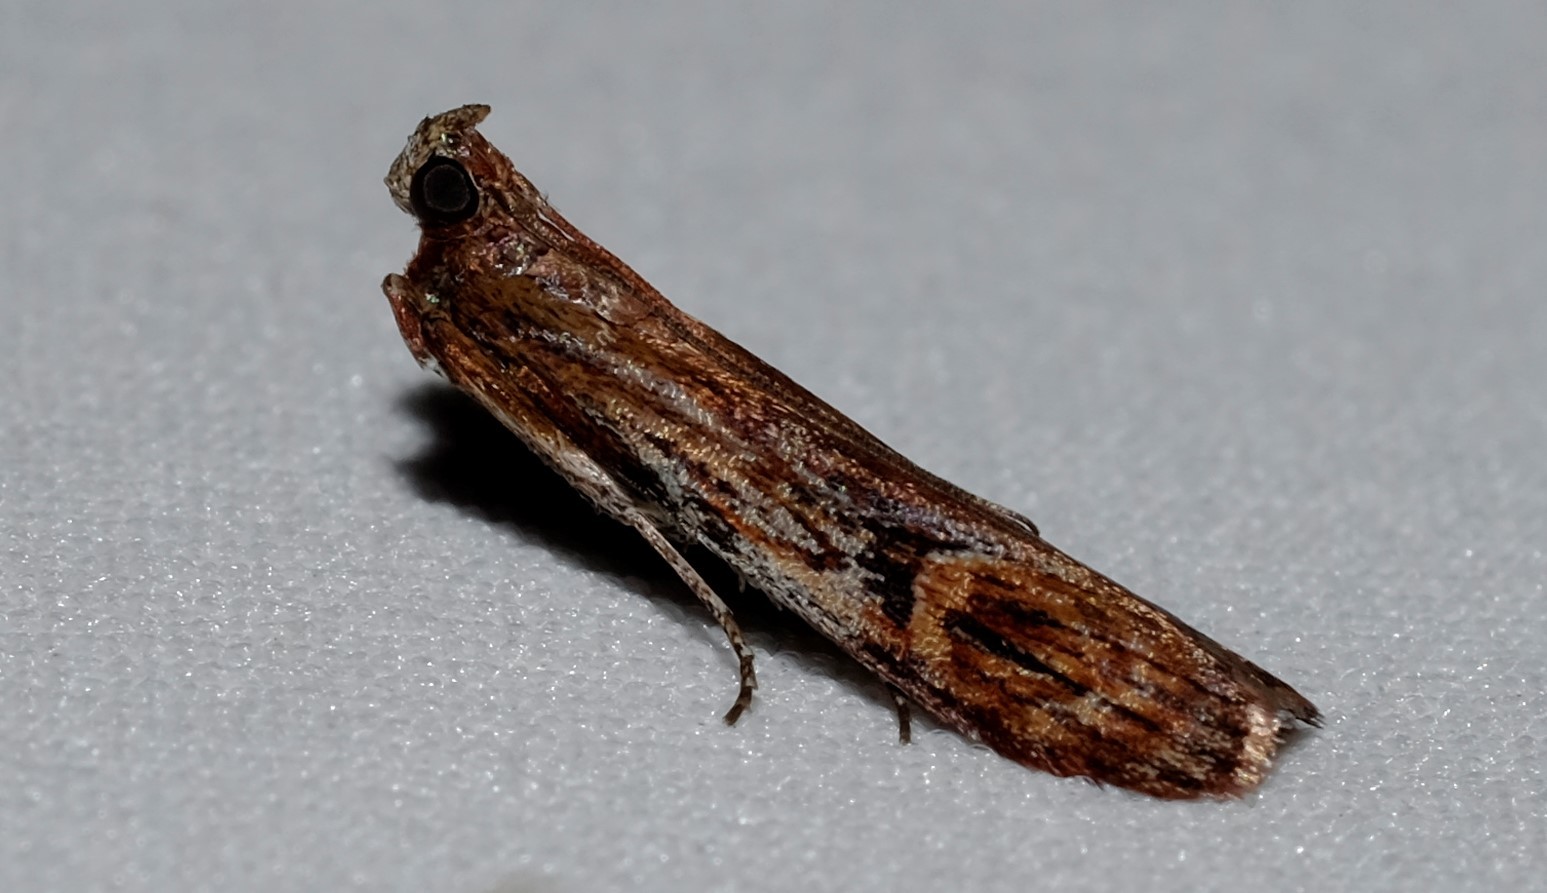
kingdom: Animalia
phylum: Arthropoda
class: Insecta
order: Lepidoptera
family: Pyralidae
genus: Balanomis
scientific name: Balanomis encyclia
